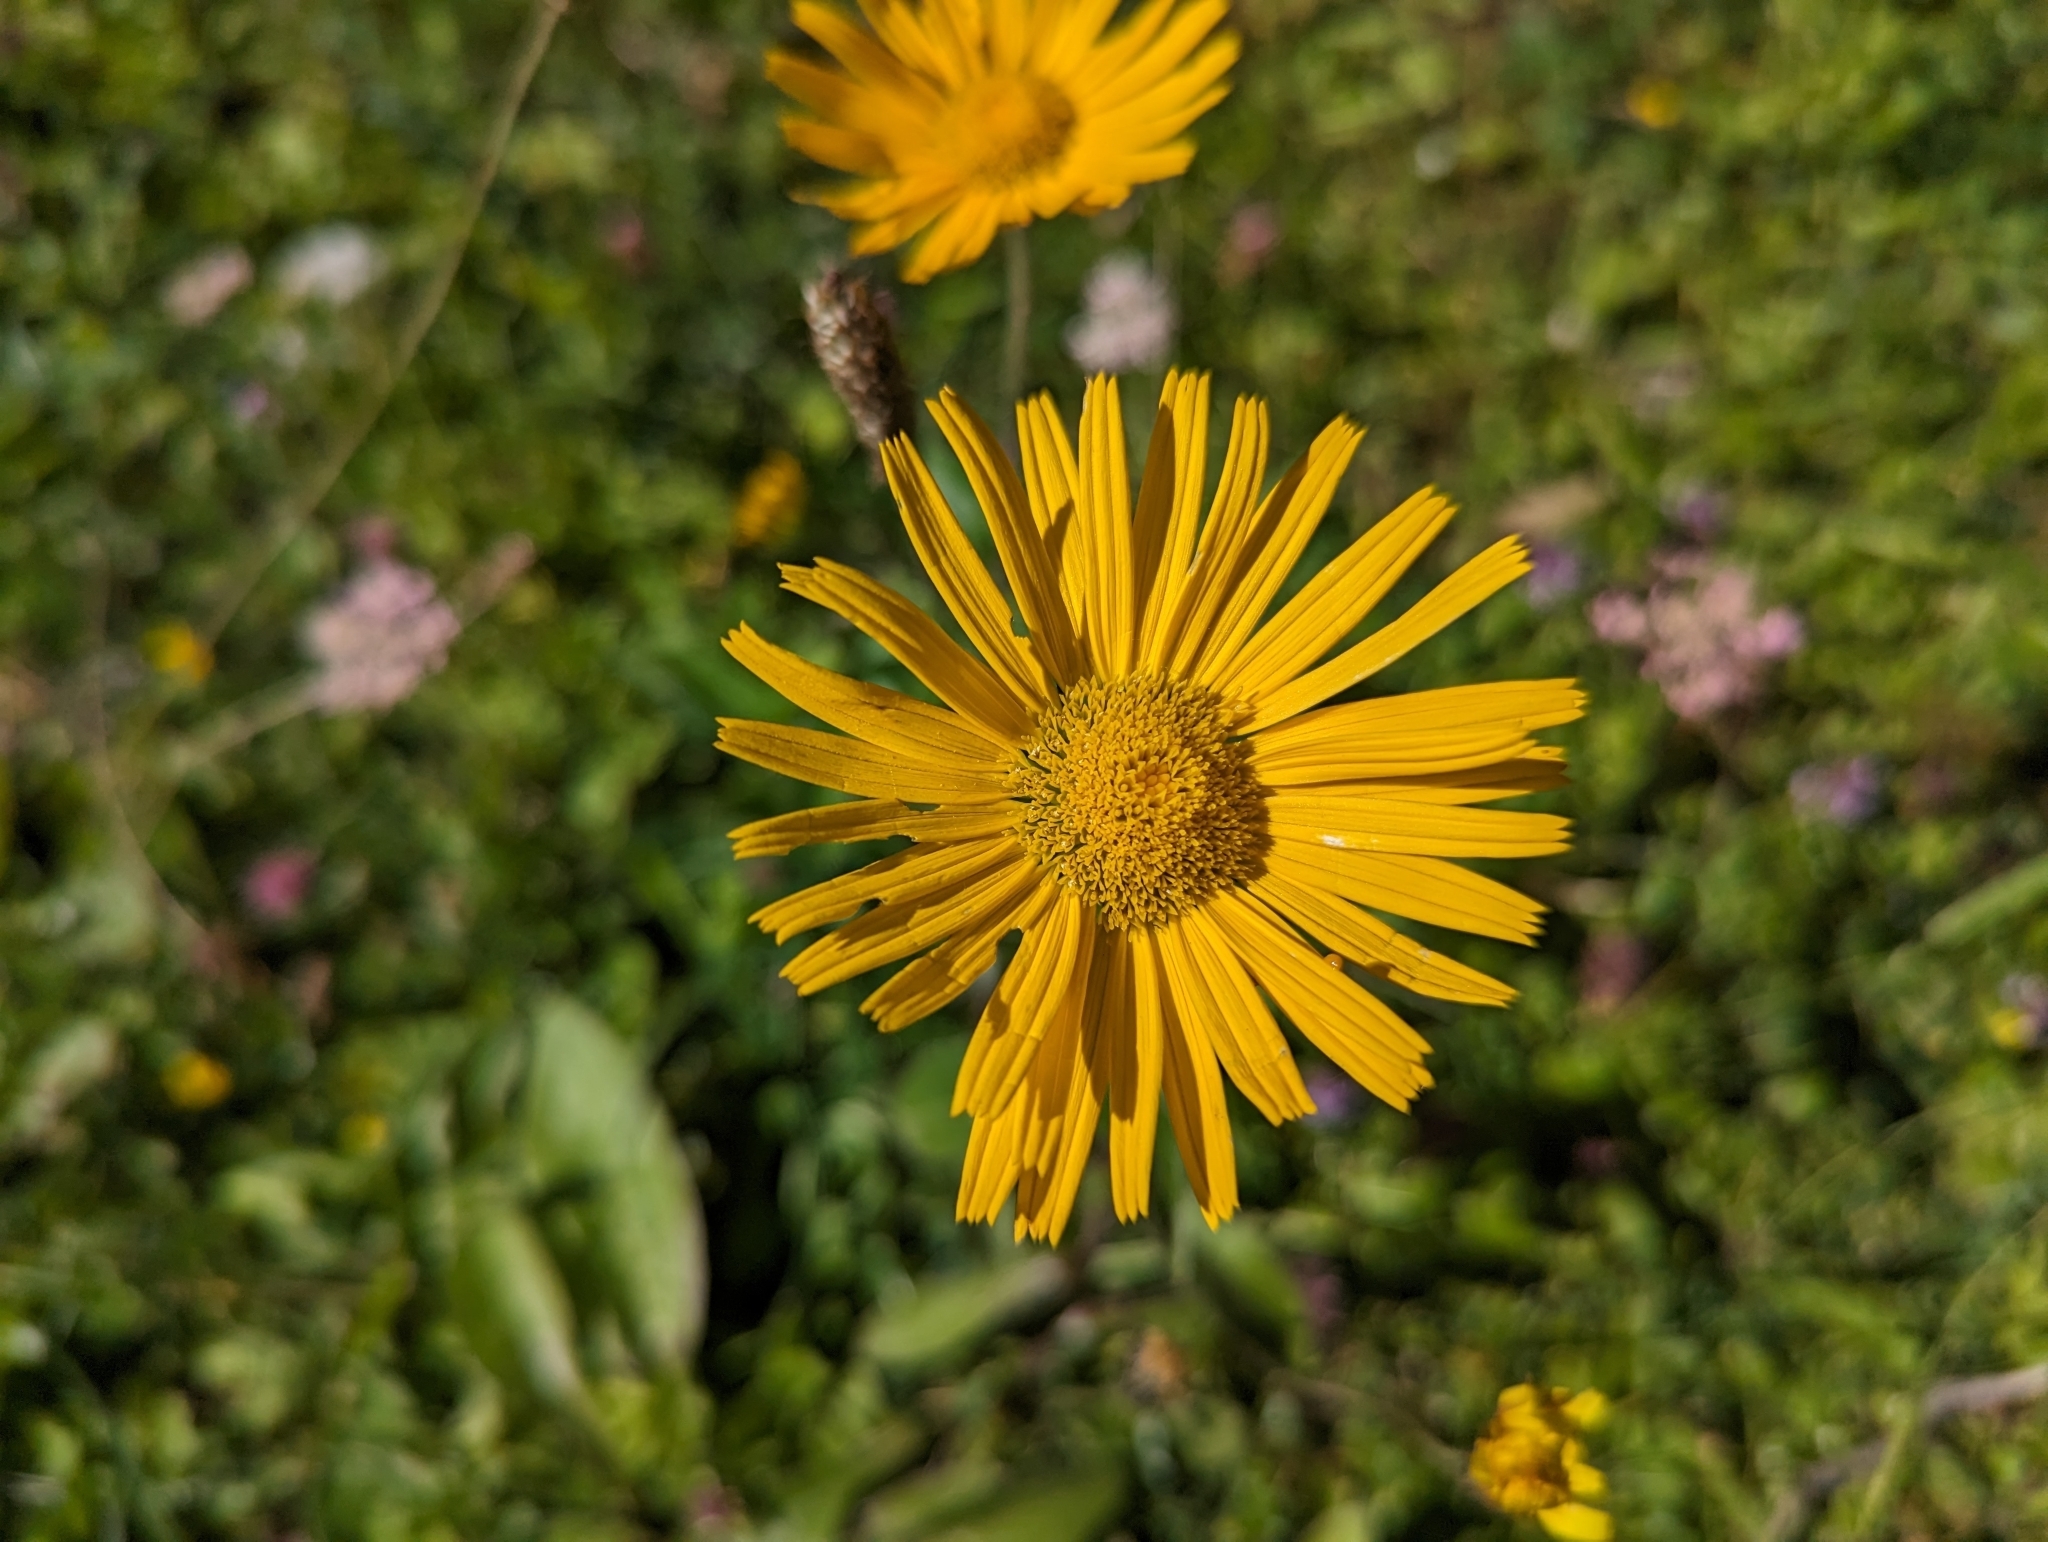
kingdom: Plantae
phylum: Tracheophyta
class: Magnoliopsida
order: Asterales
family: Asteraceae
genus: Buphthalmum
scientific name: Buphthalmum salicifolium
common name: Willow-leaved yellow-oxeye
